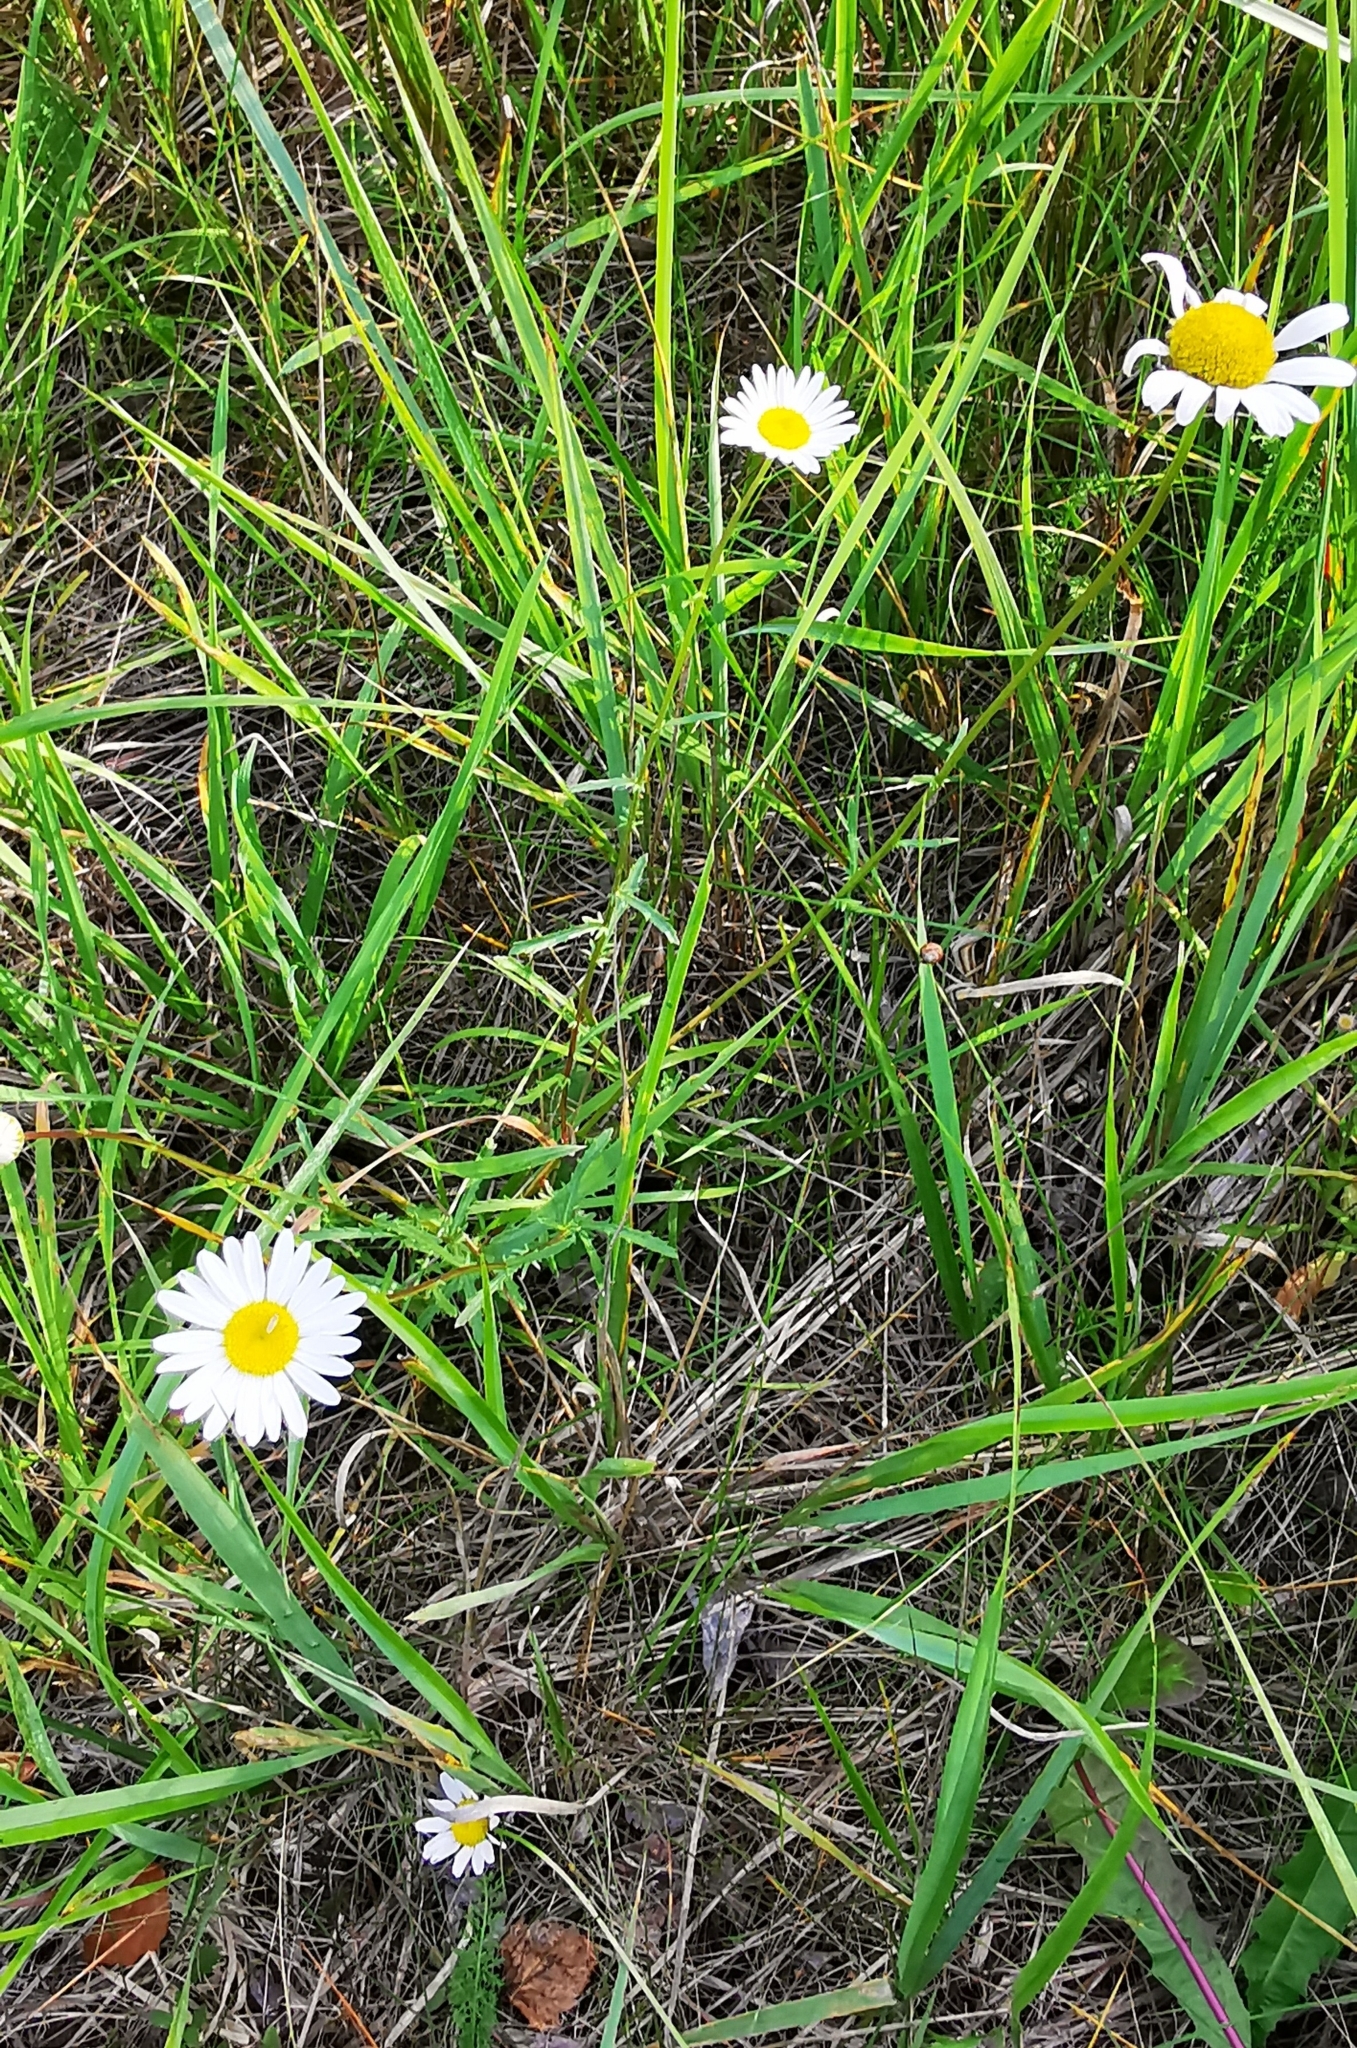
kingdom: Plantae
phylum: Tracheophyta
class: Magnoliopsida
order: Asterales
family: Asteraceae
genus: Leucanthemum
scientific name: Leucanthemum vulgare
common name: Oxeye daisy
